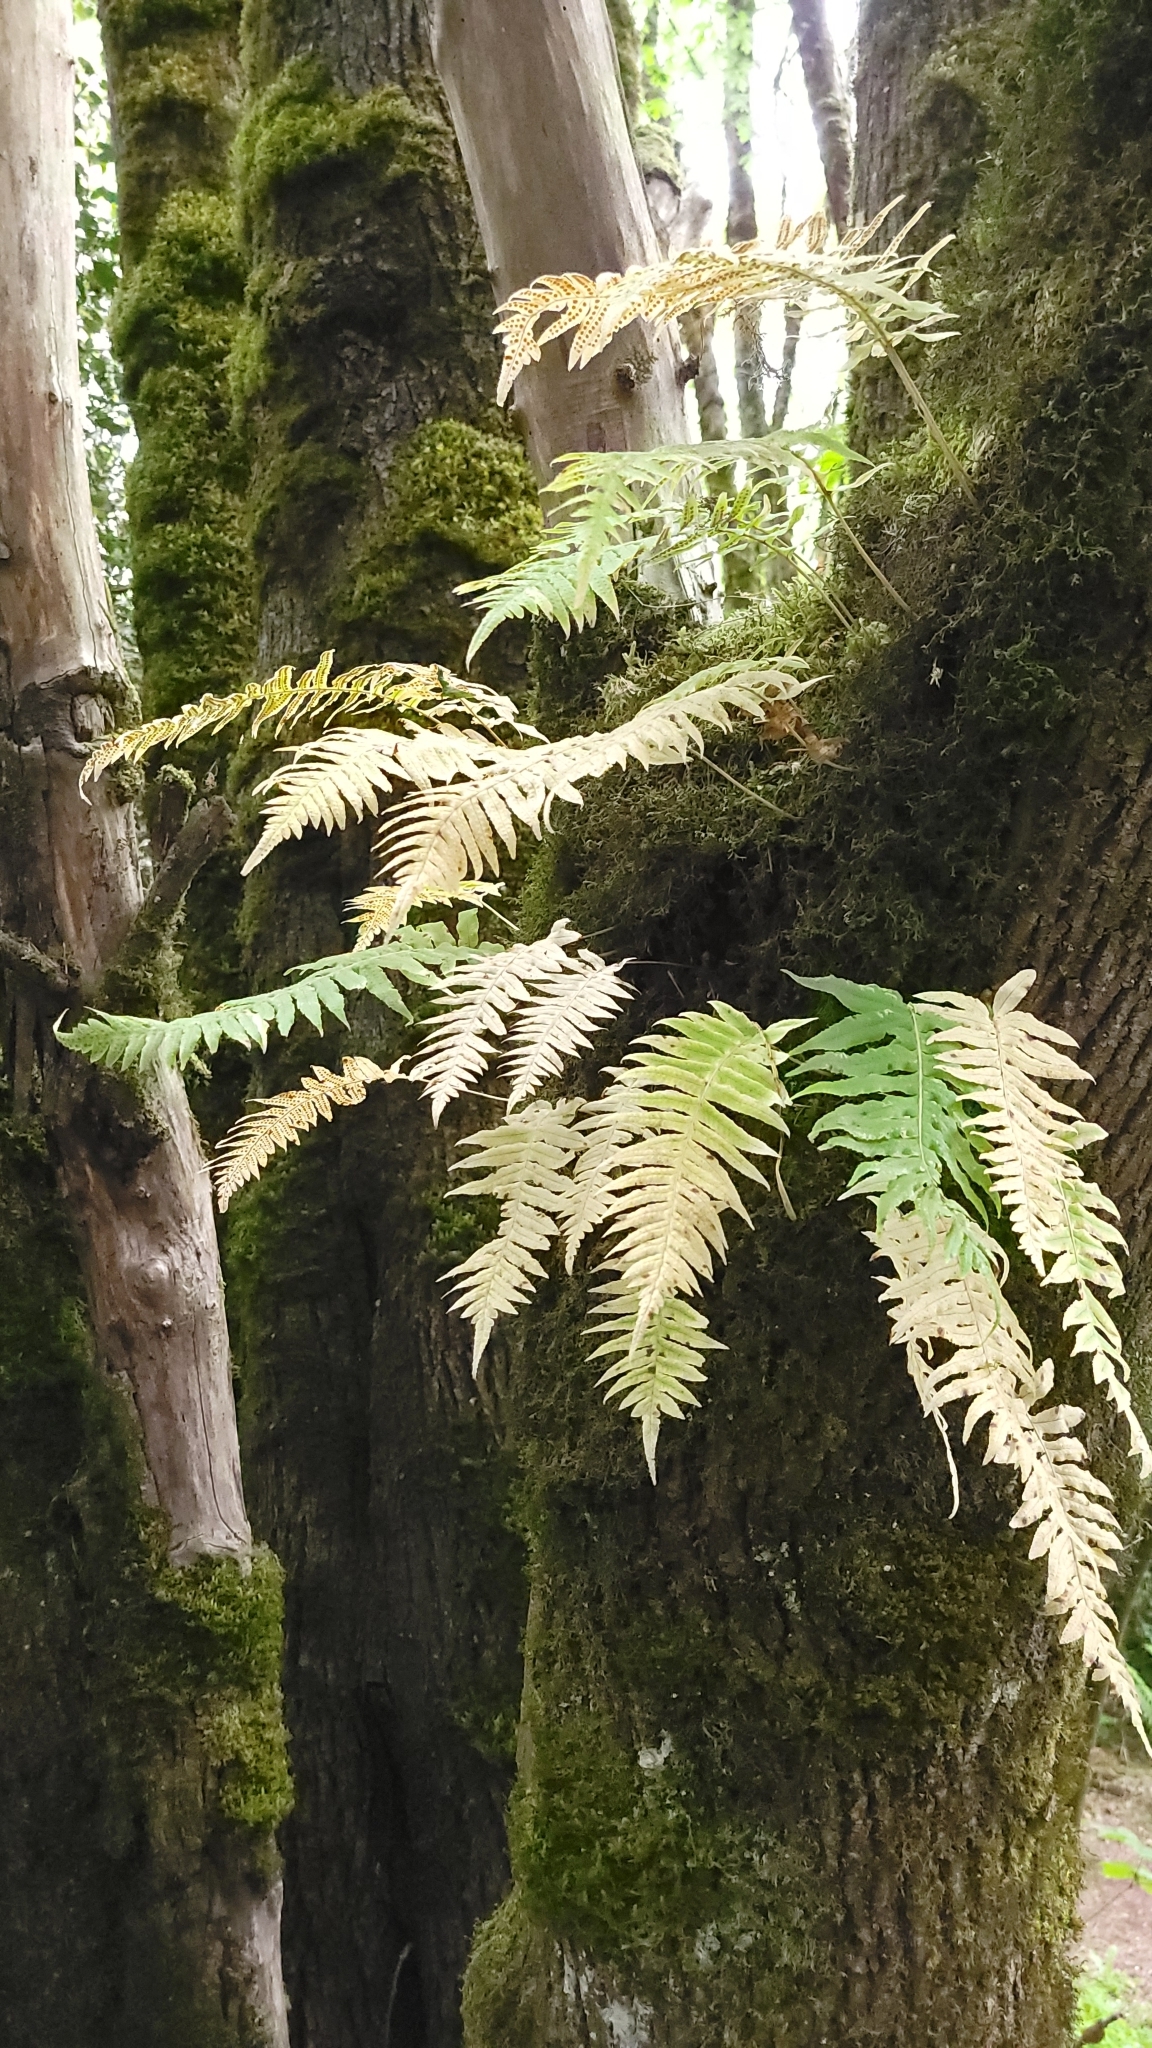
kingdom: Plantae
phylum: Tracheophyta
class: Polypodiopsida
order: Polypodiales
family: Polypodiaceae
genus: Polypodium
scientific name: Polypodium glycyrrhiza
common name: Licorice fern
